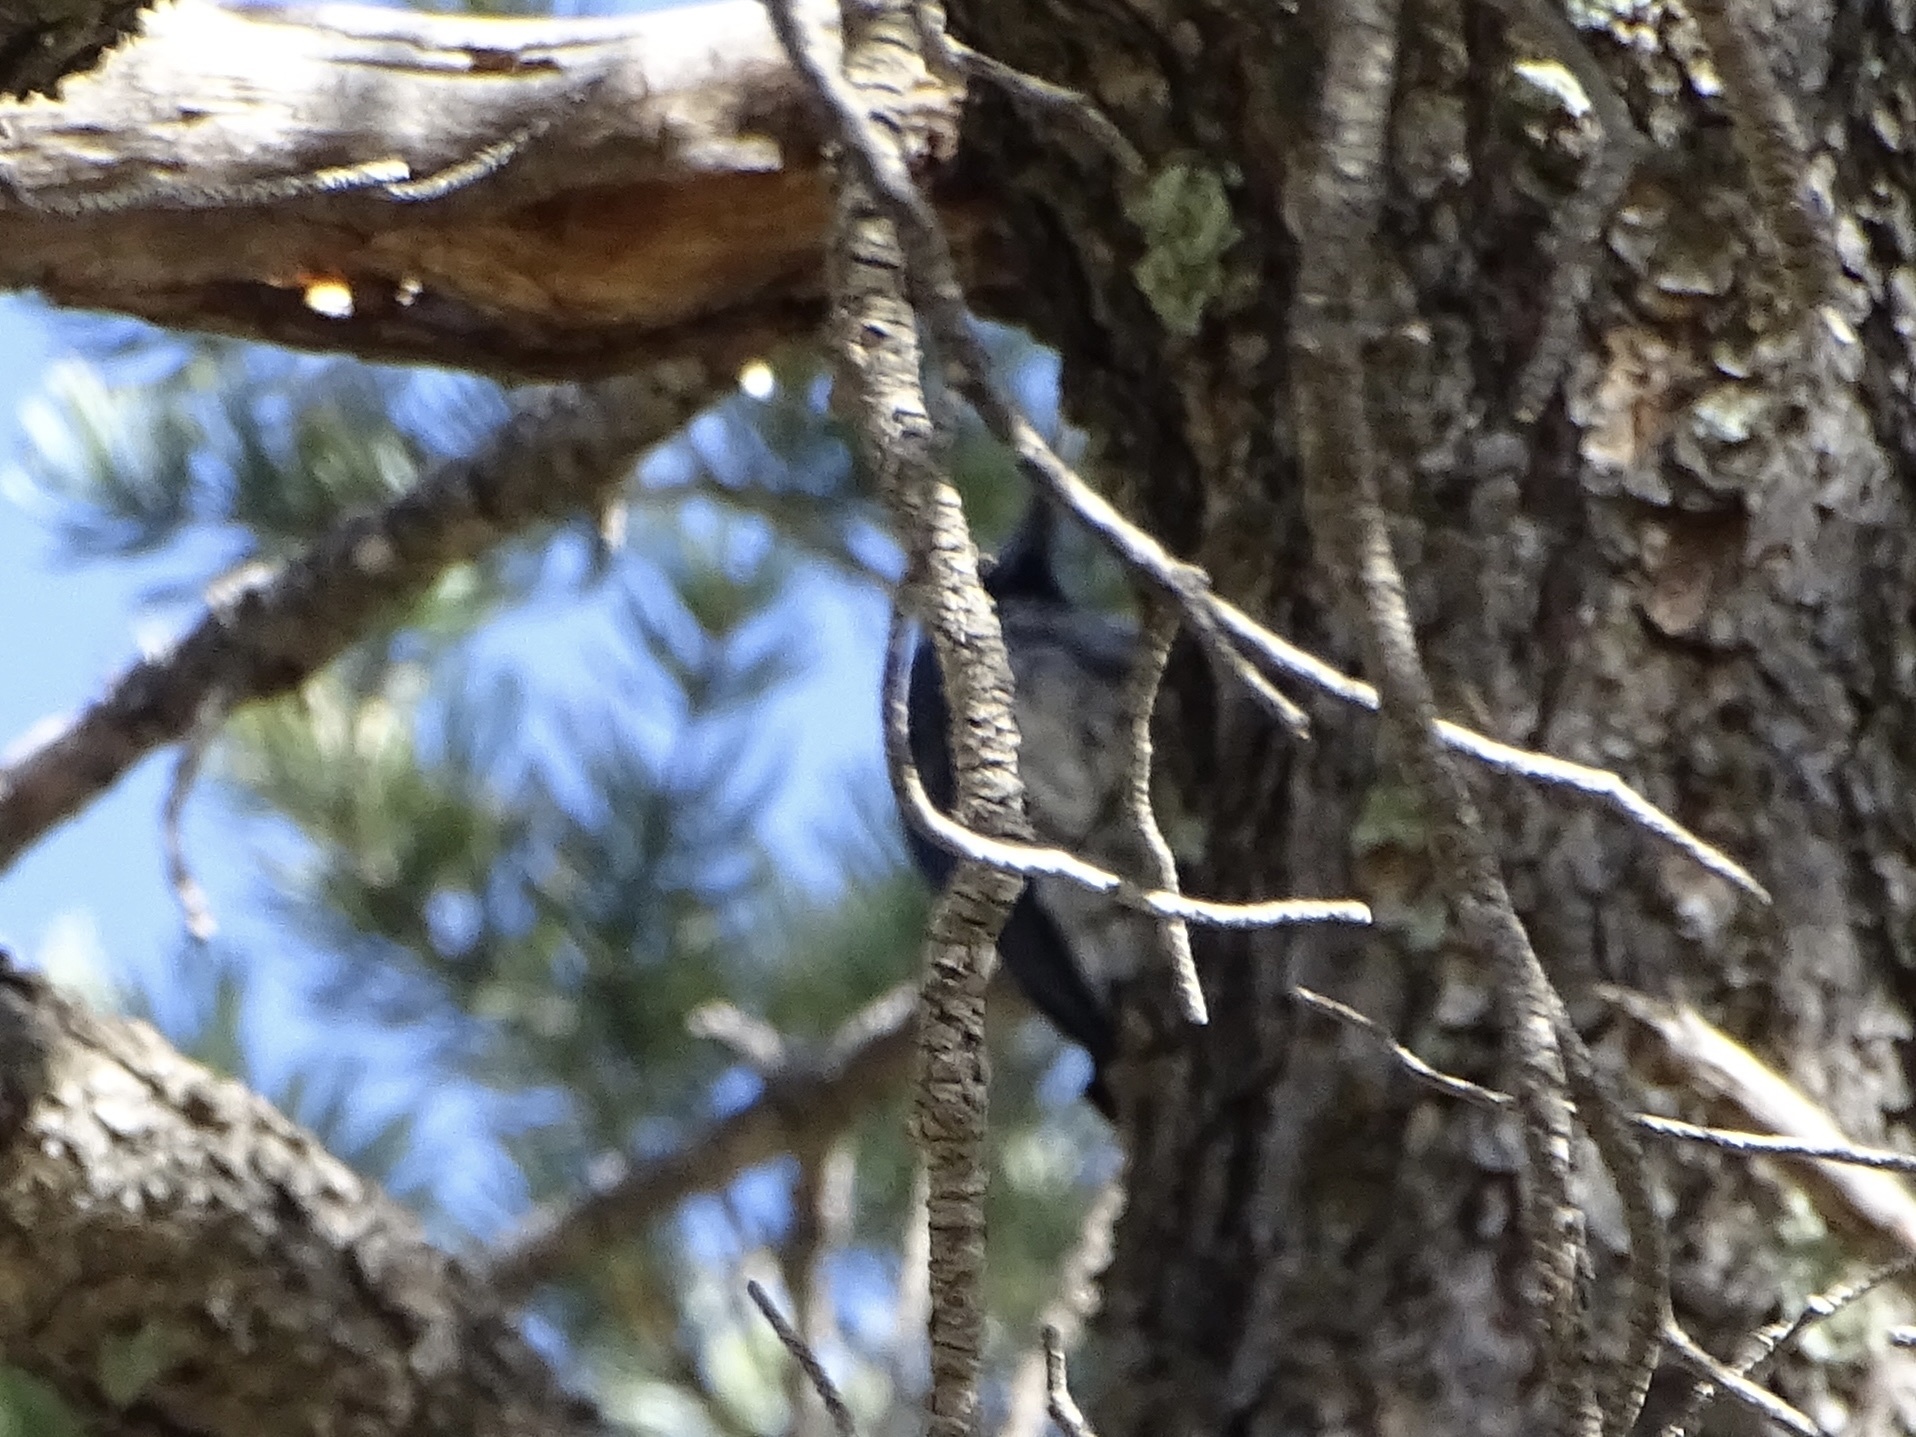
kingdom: Animalia
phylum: Chordata
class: Aves
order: Piciformes
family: Picidae
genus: Melanerpes
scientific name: Melanerpes formicivorus
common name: Acorn woodpecker
